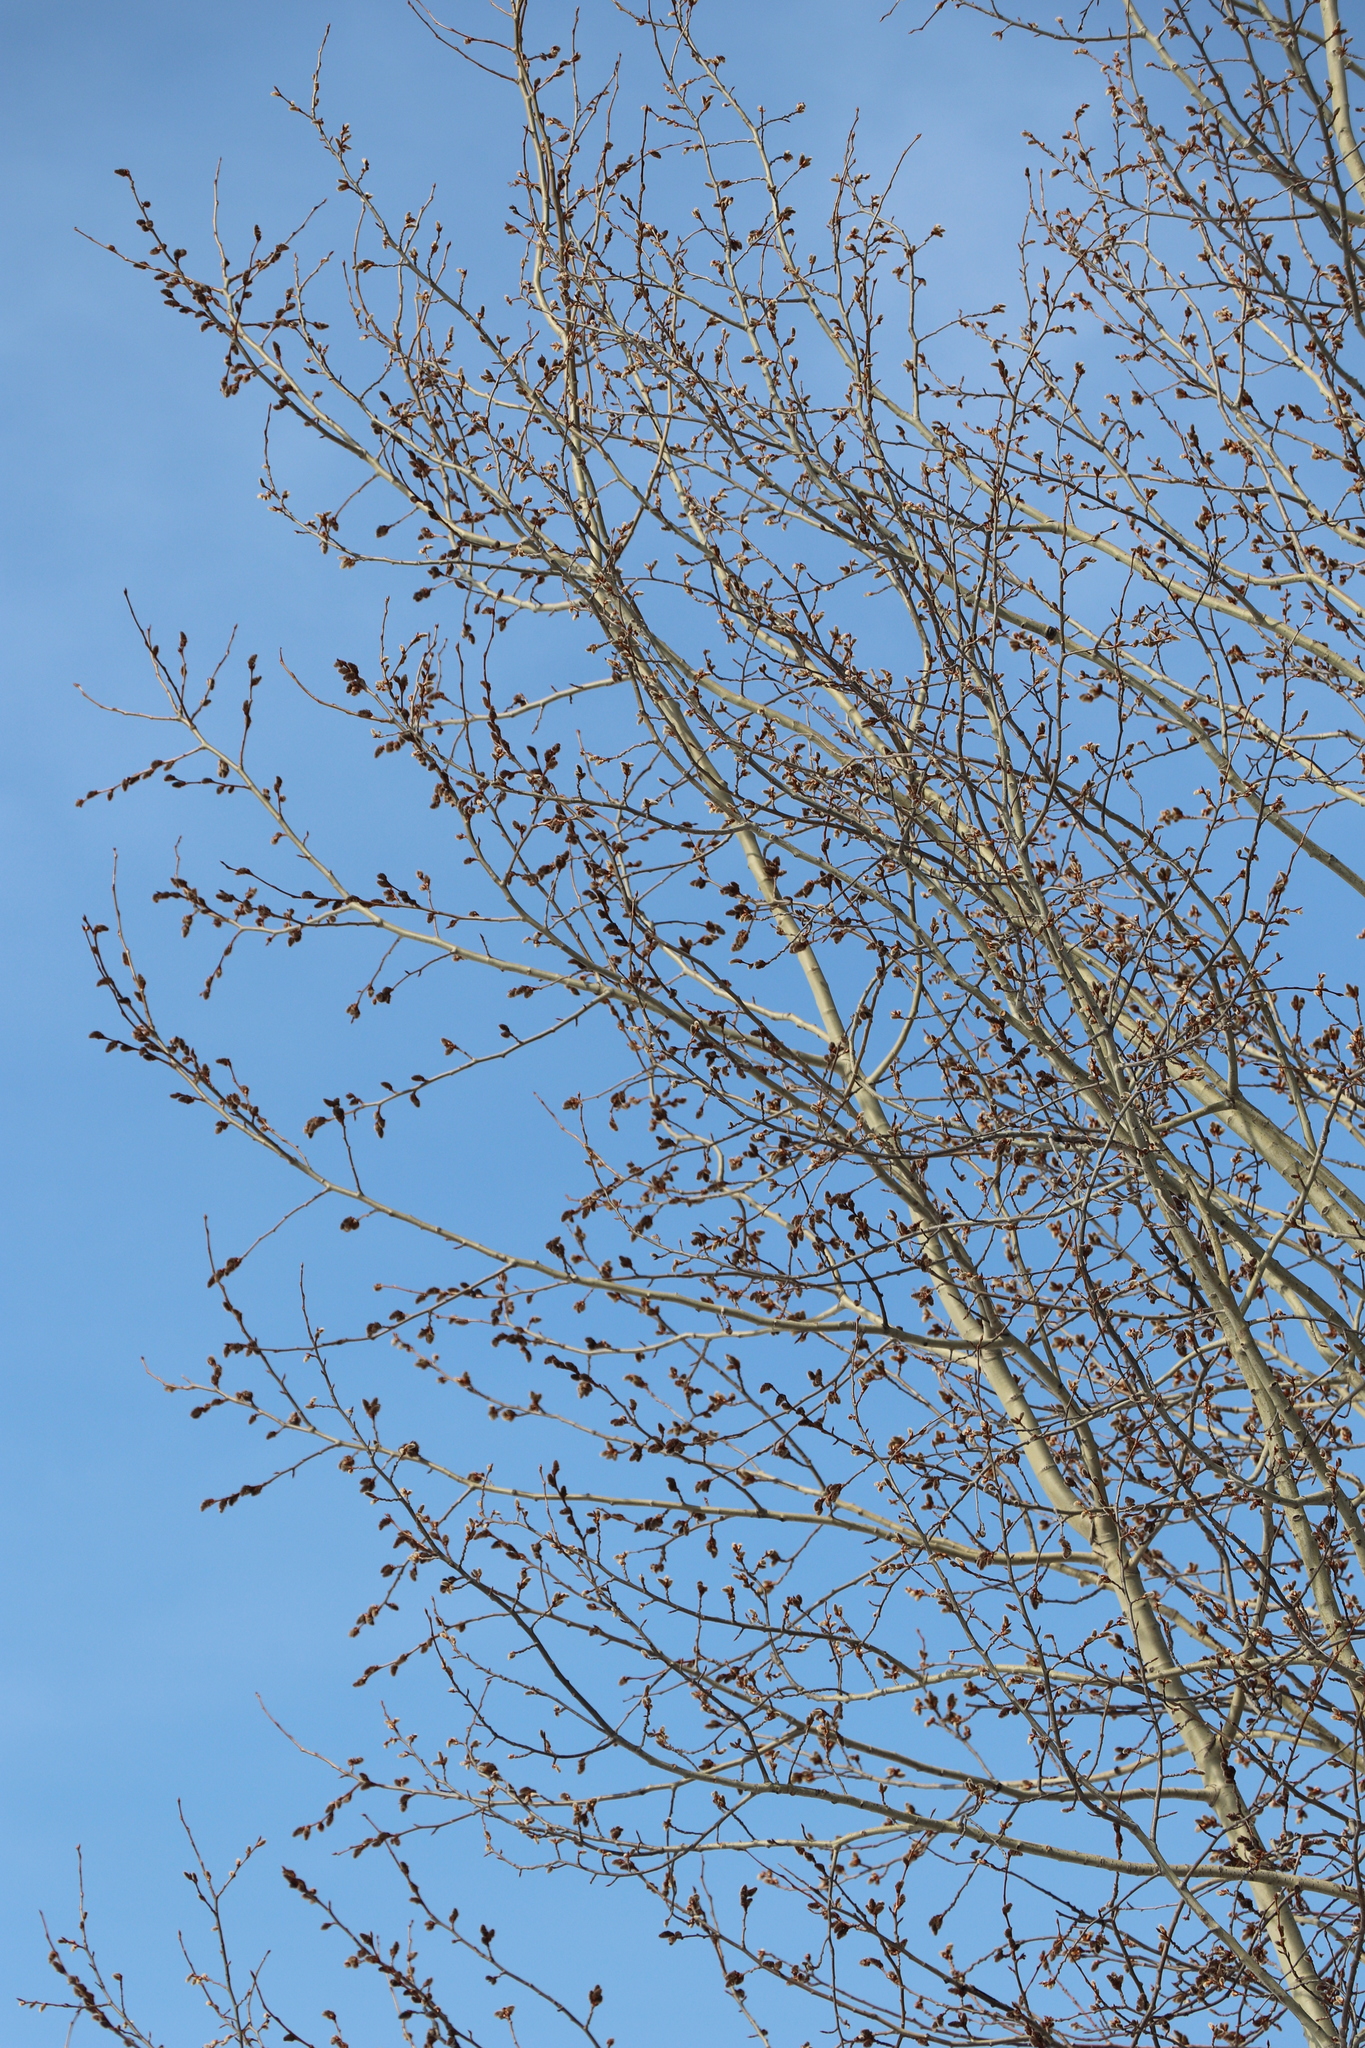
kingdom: Plantae
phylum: Tracheophyta
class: Magnoliopsida
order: Malpighiales
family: Salicaceae
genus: Populus
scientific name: Populus tremula
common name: European aspen
